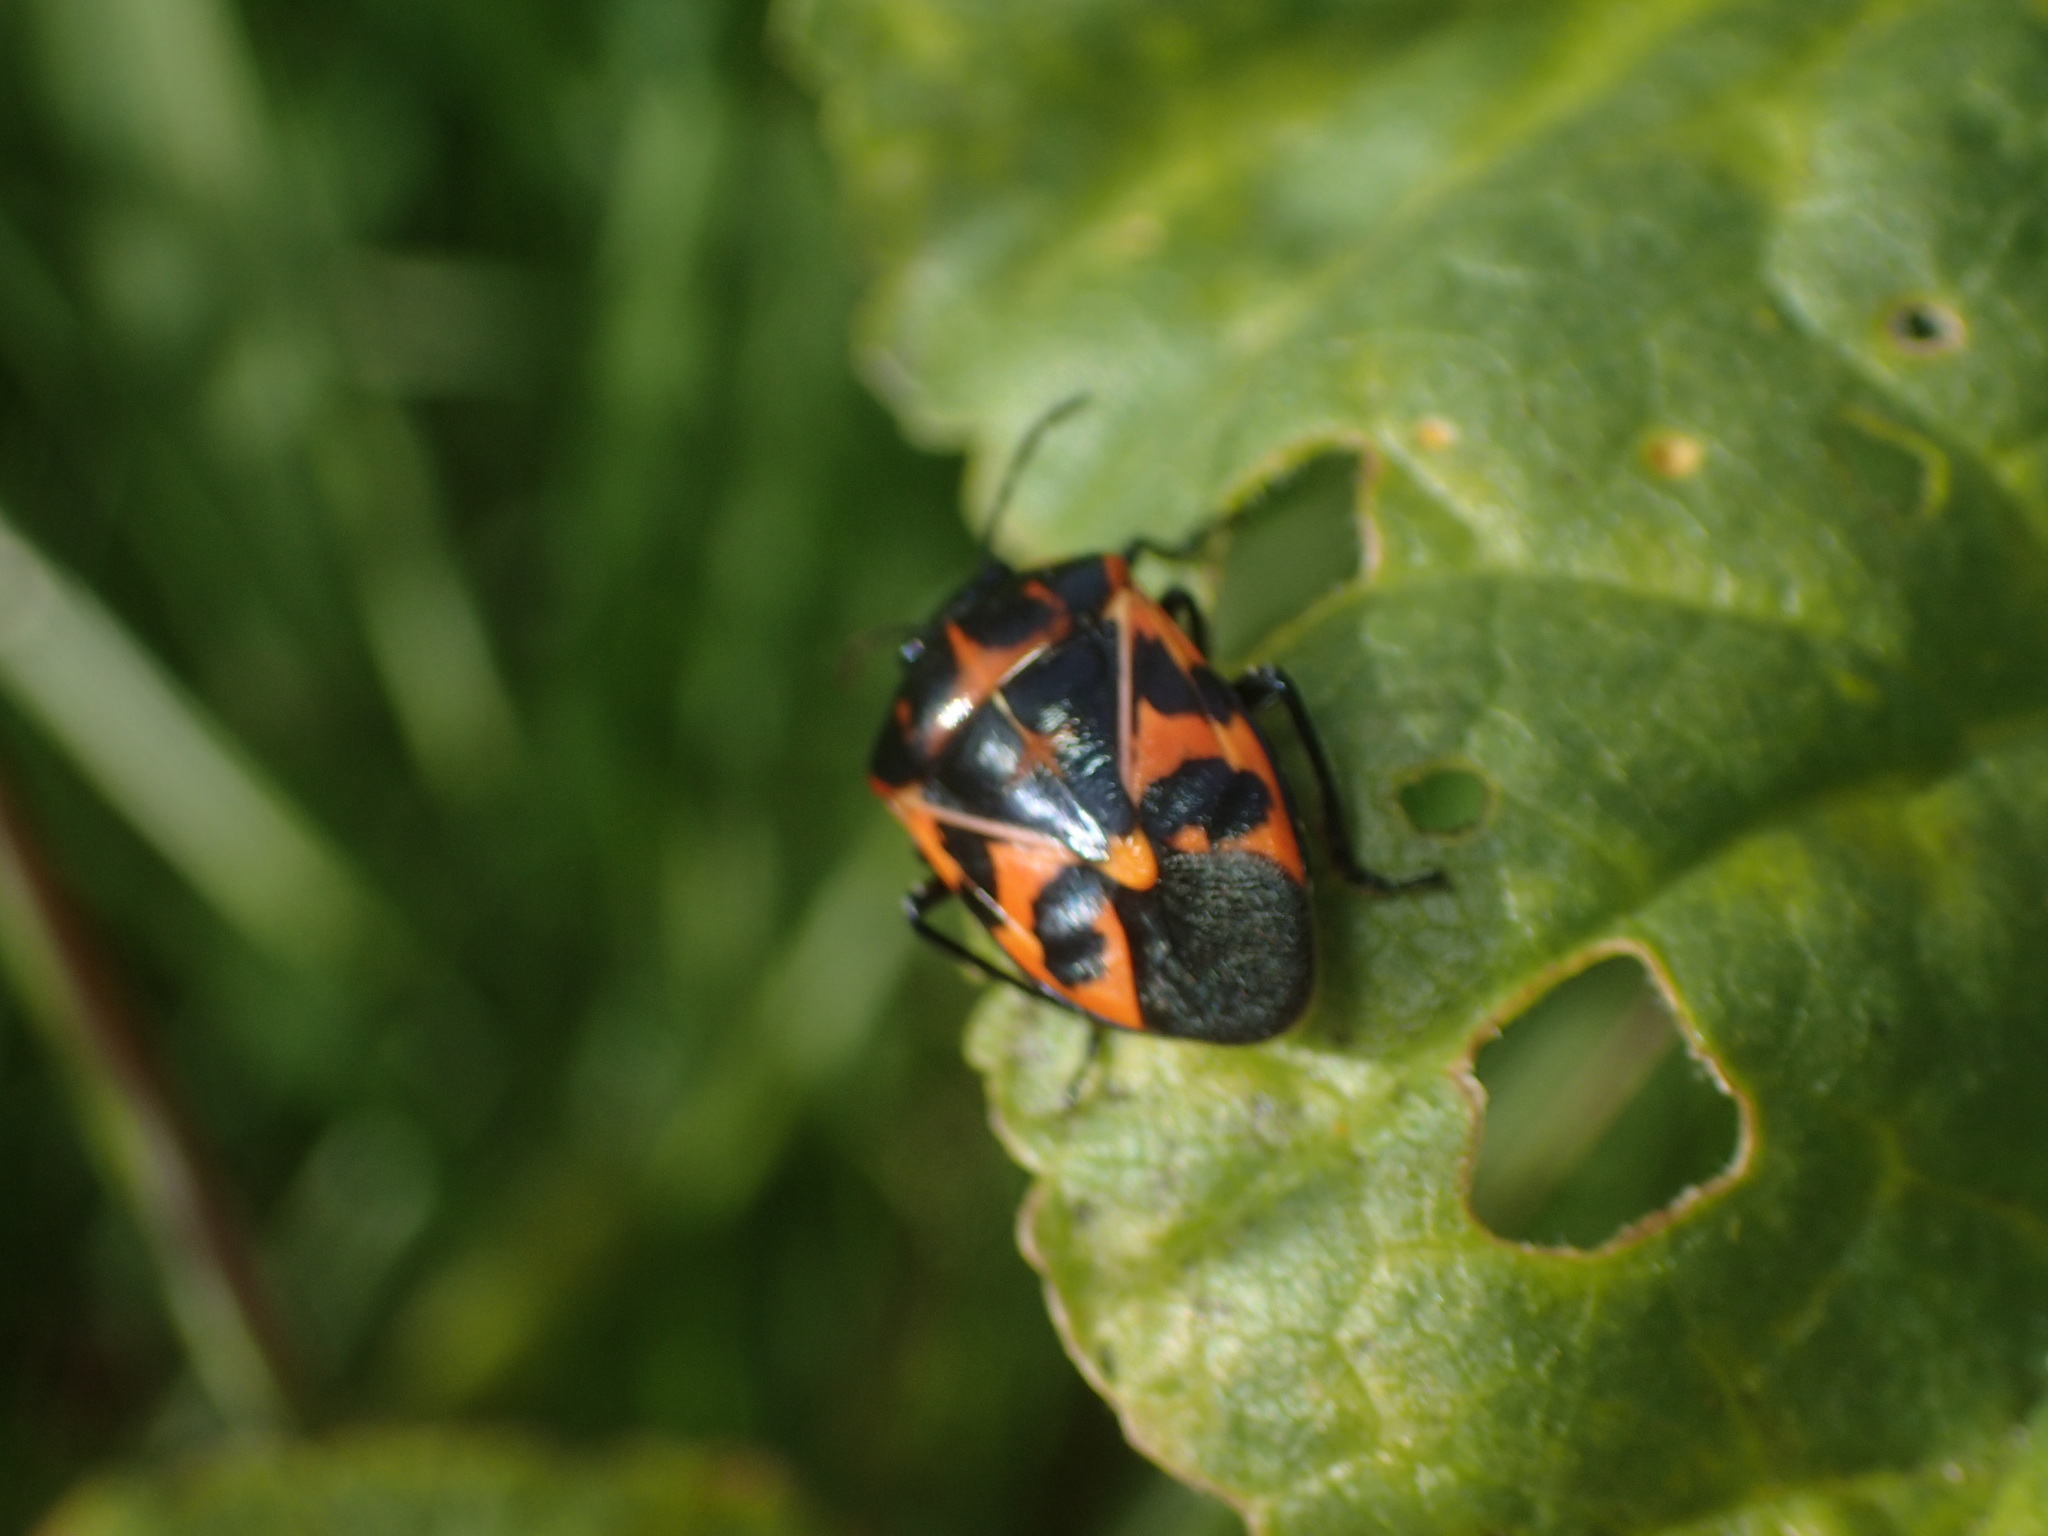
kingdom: Animalia
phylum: Arthropoda
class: Insecta
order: Hemiptera
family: Pentatomidae
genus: Murgantia
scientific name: Murgantia histrionica
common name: Harlequin bug
